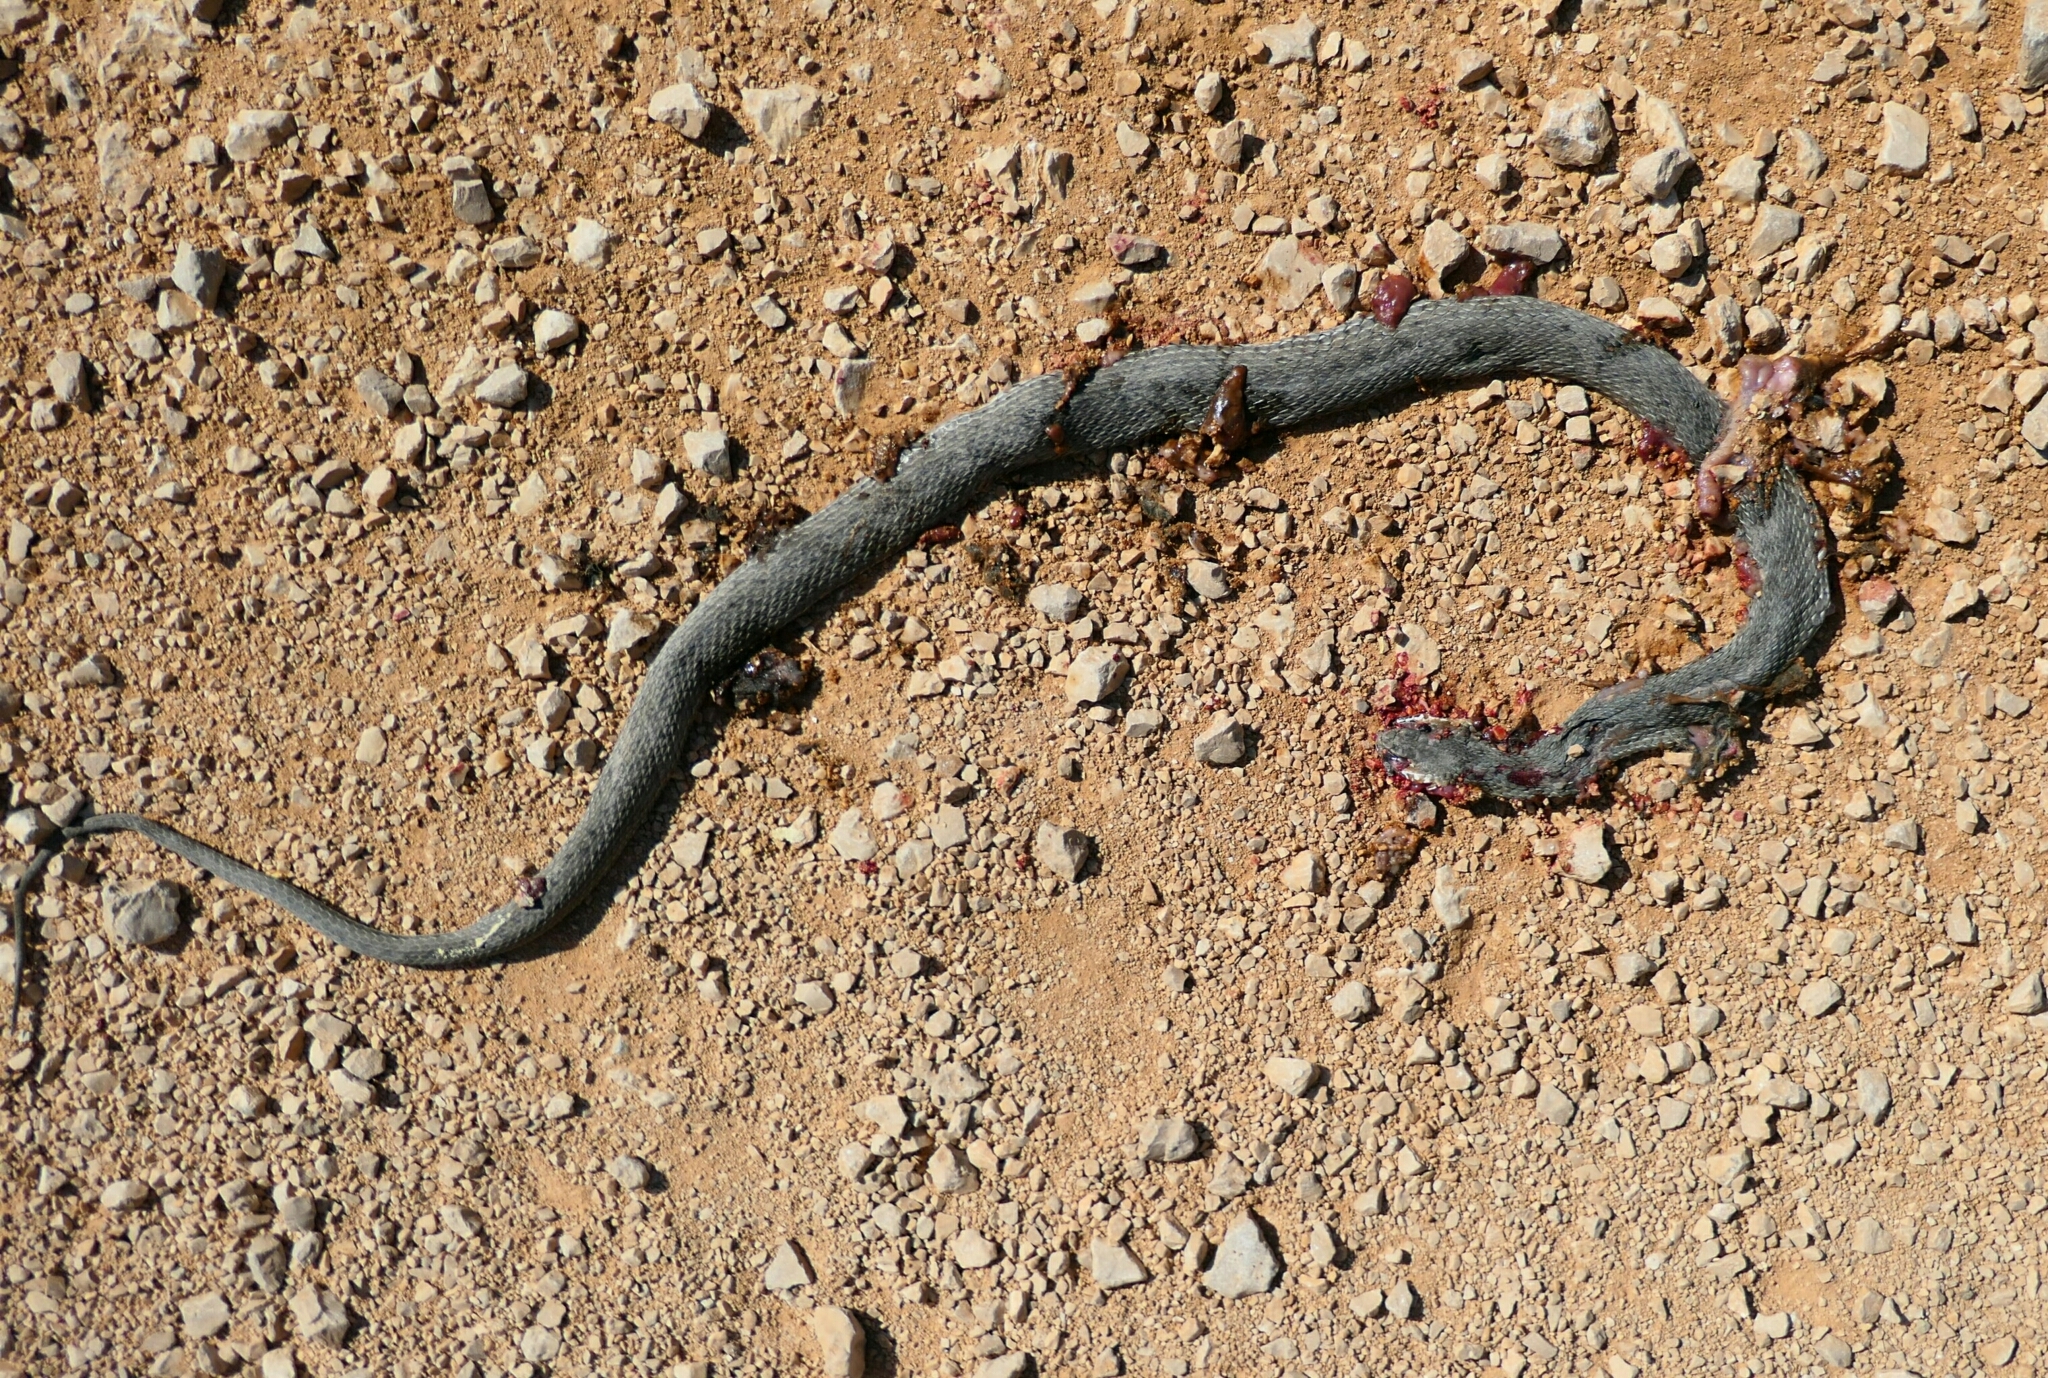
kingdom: Animalia
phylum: Chordata
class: Squamata
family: Psammophiidae
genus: Malpolon
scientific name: Malpolon insignitus
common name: Eastern montpellier snake
